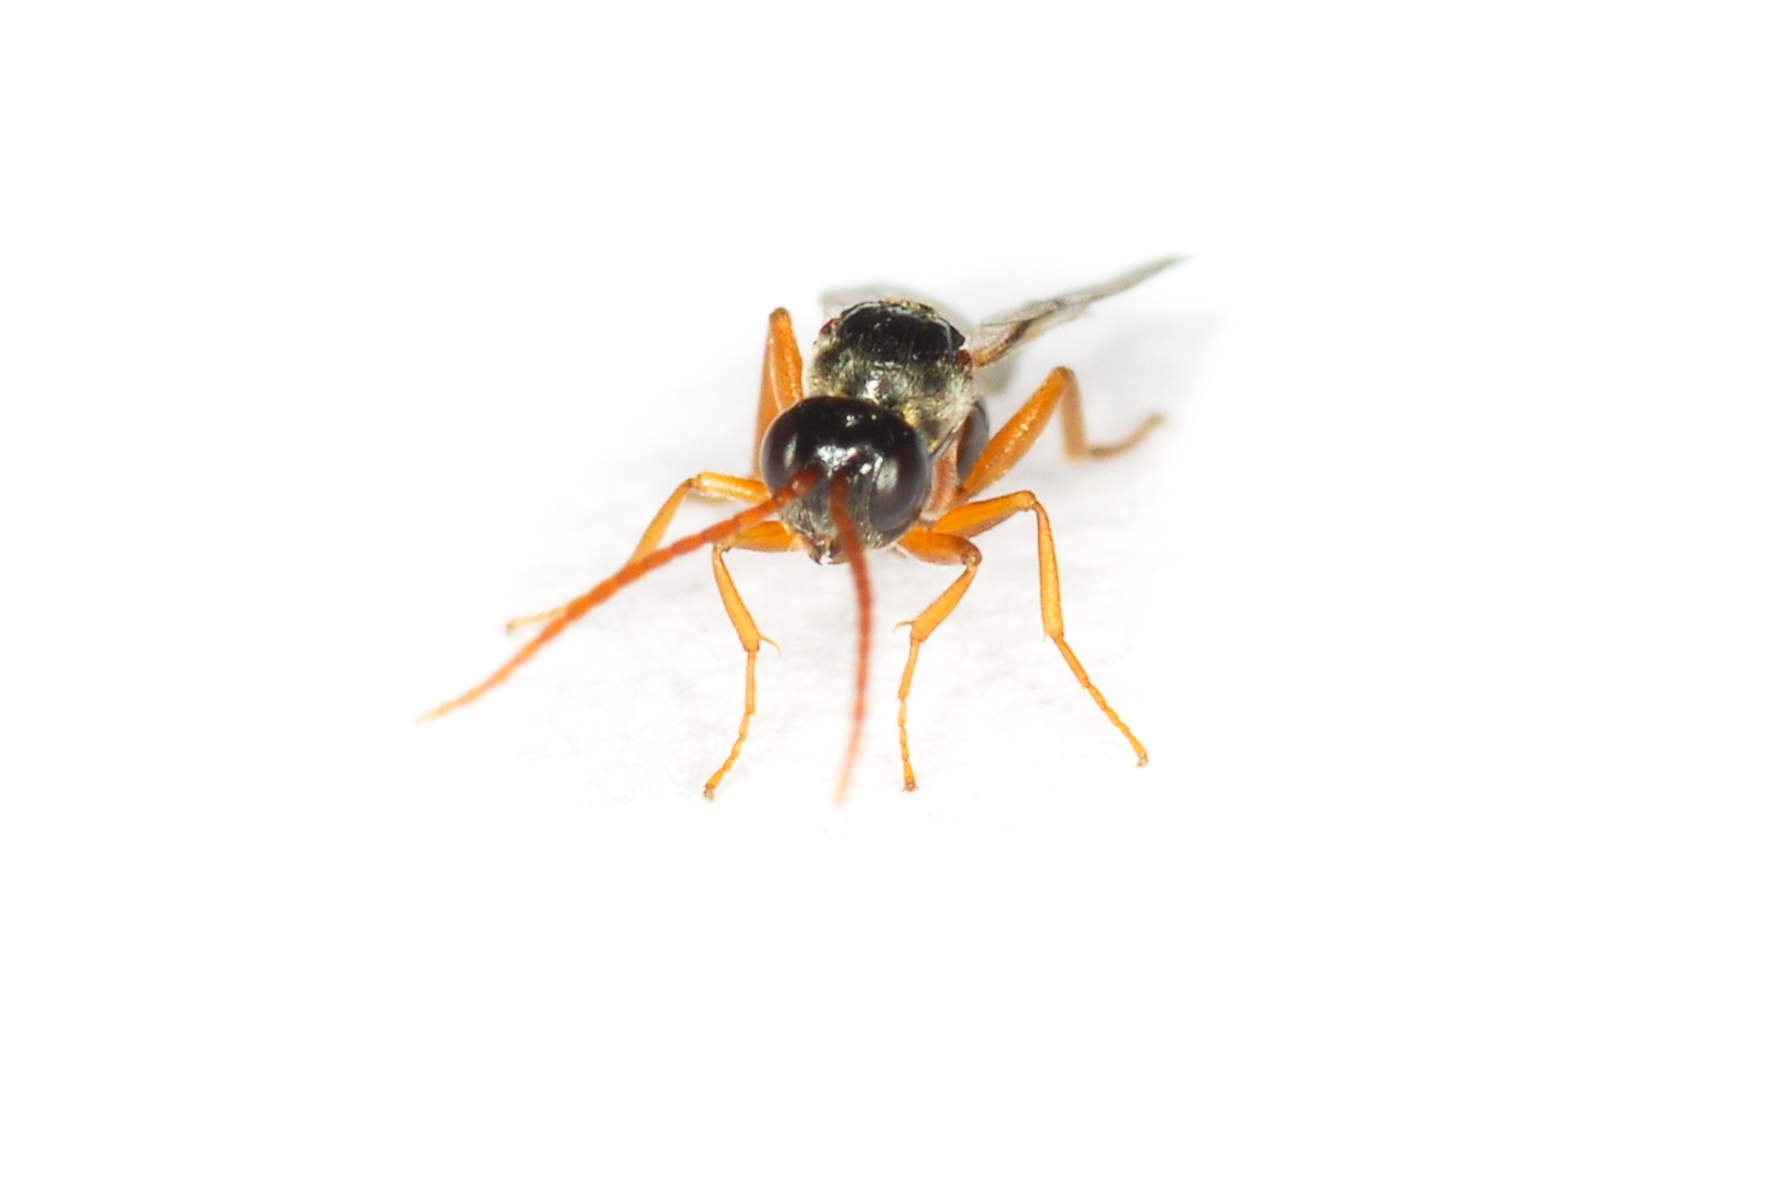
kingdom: Animalia
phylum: Arthropoda
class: Insecta
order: Hymenoptera
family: Cynipidae
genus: Diastrophus
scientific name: Diastrophus
